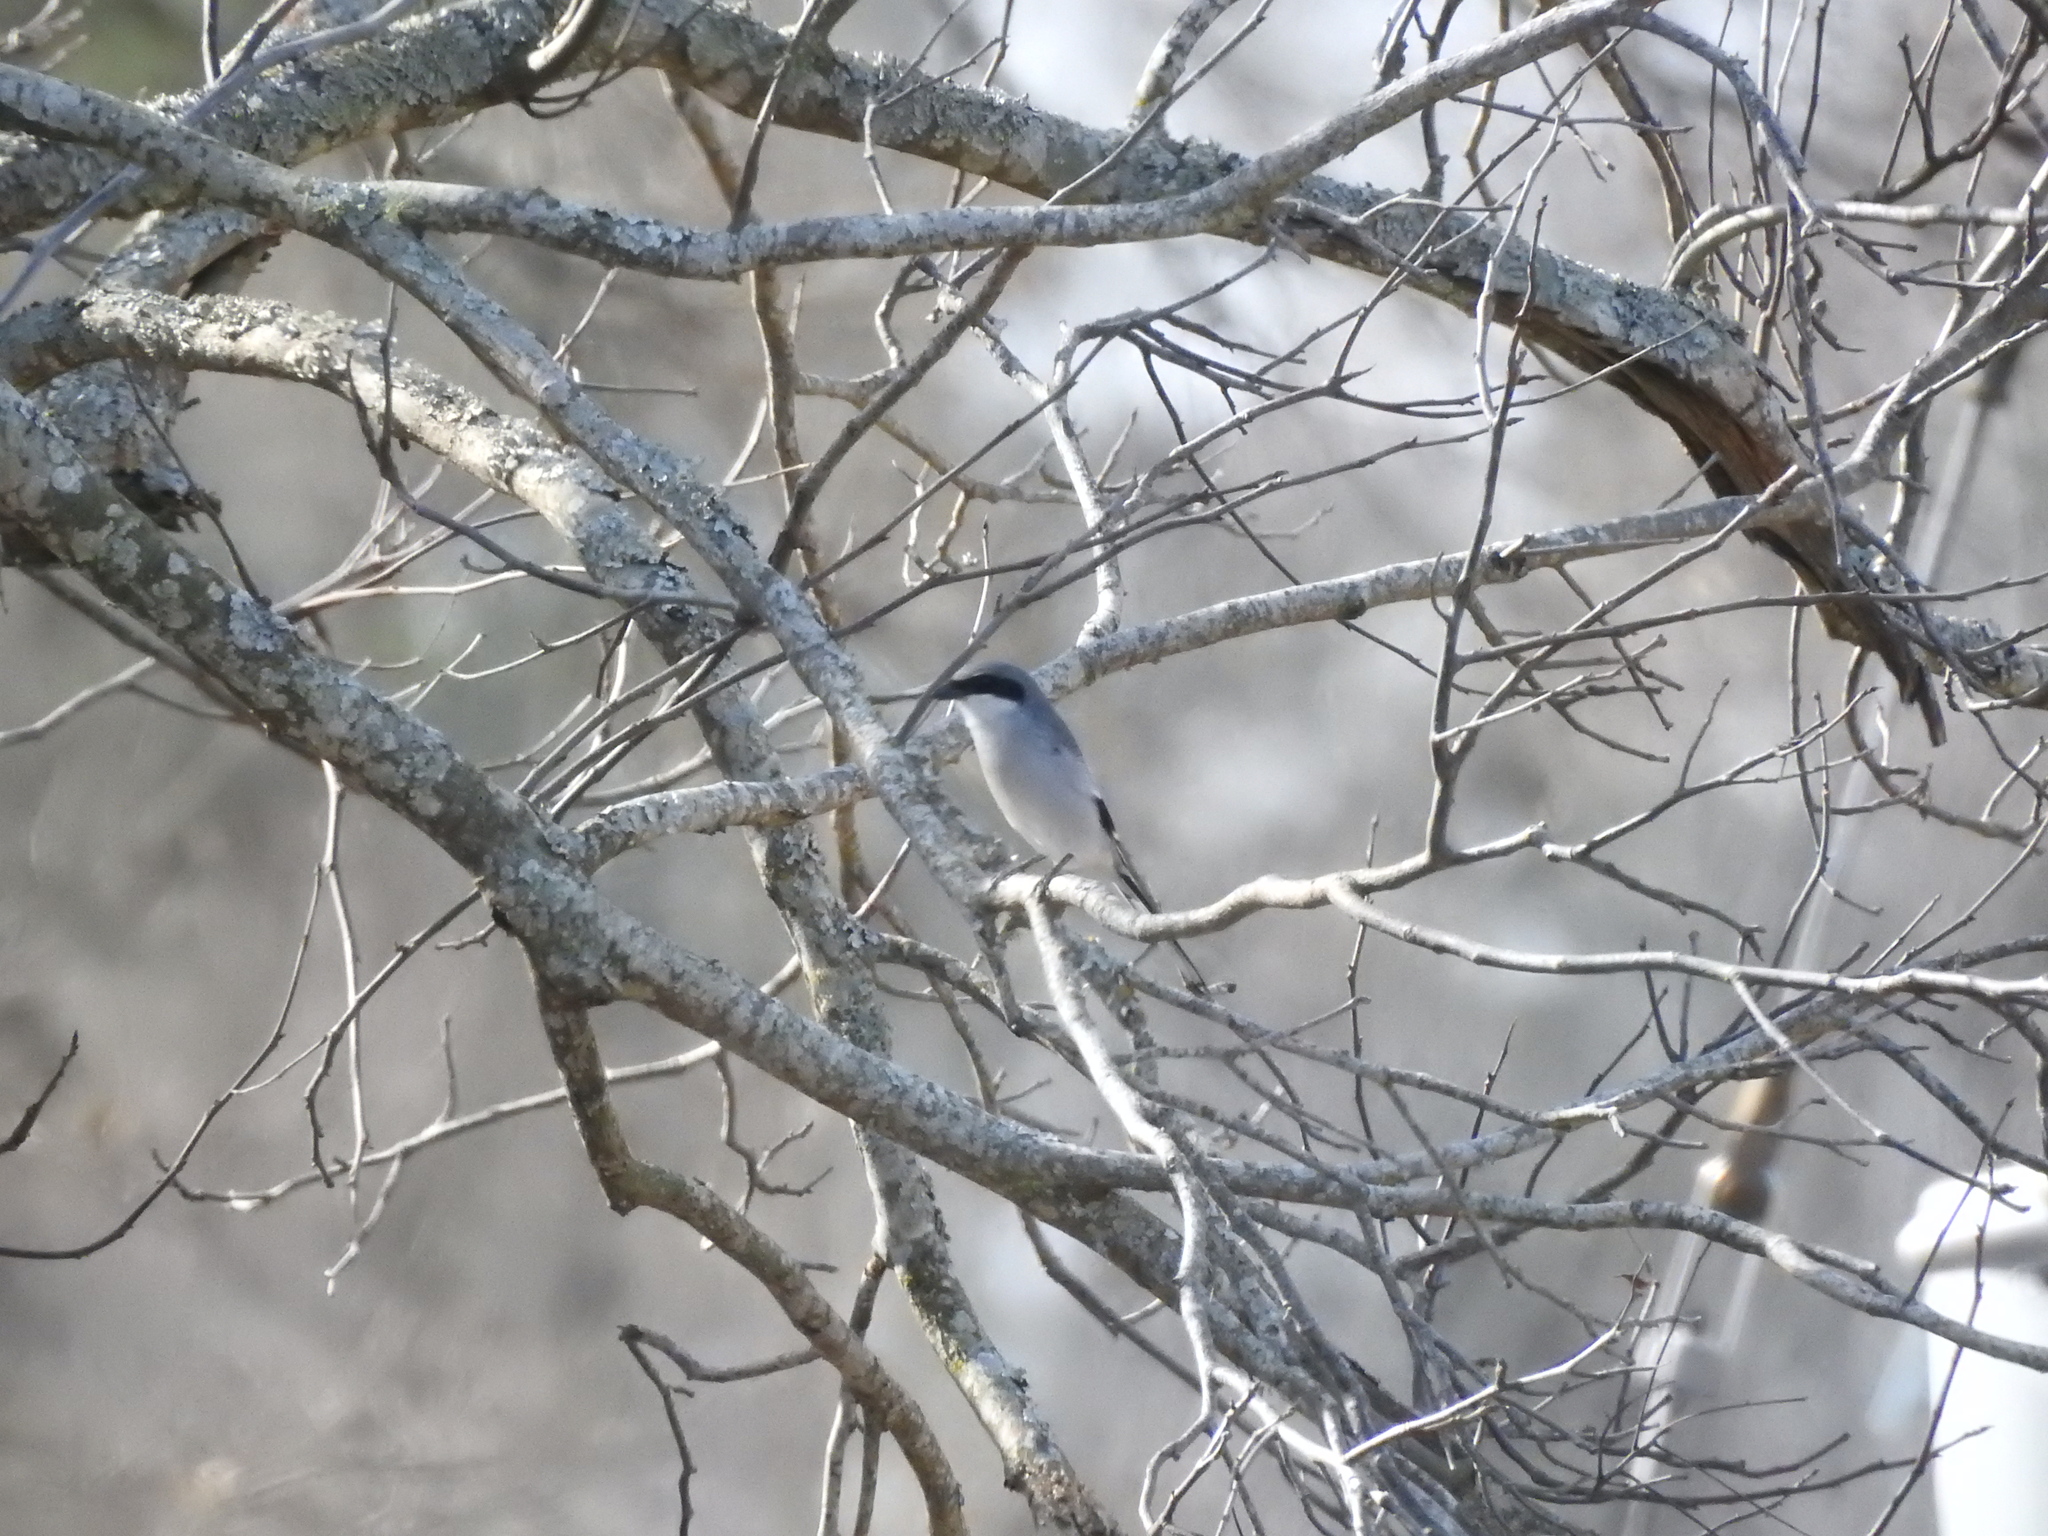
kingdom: Animalia
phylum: Chordata
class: Aves
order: Passeriformes
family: Laniidae
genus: Lanius
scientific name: Lanius ludovicianus
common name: Loggerhead shrike
